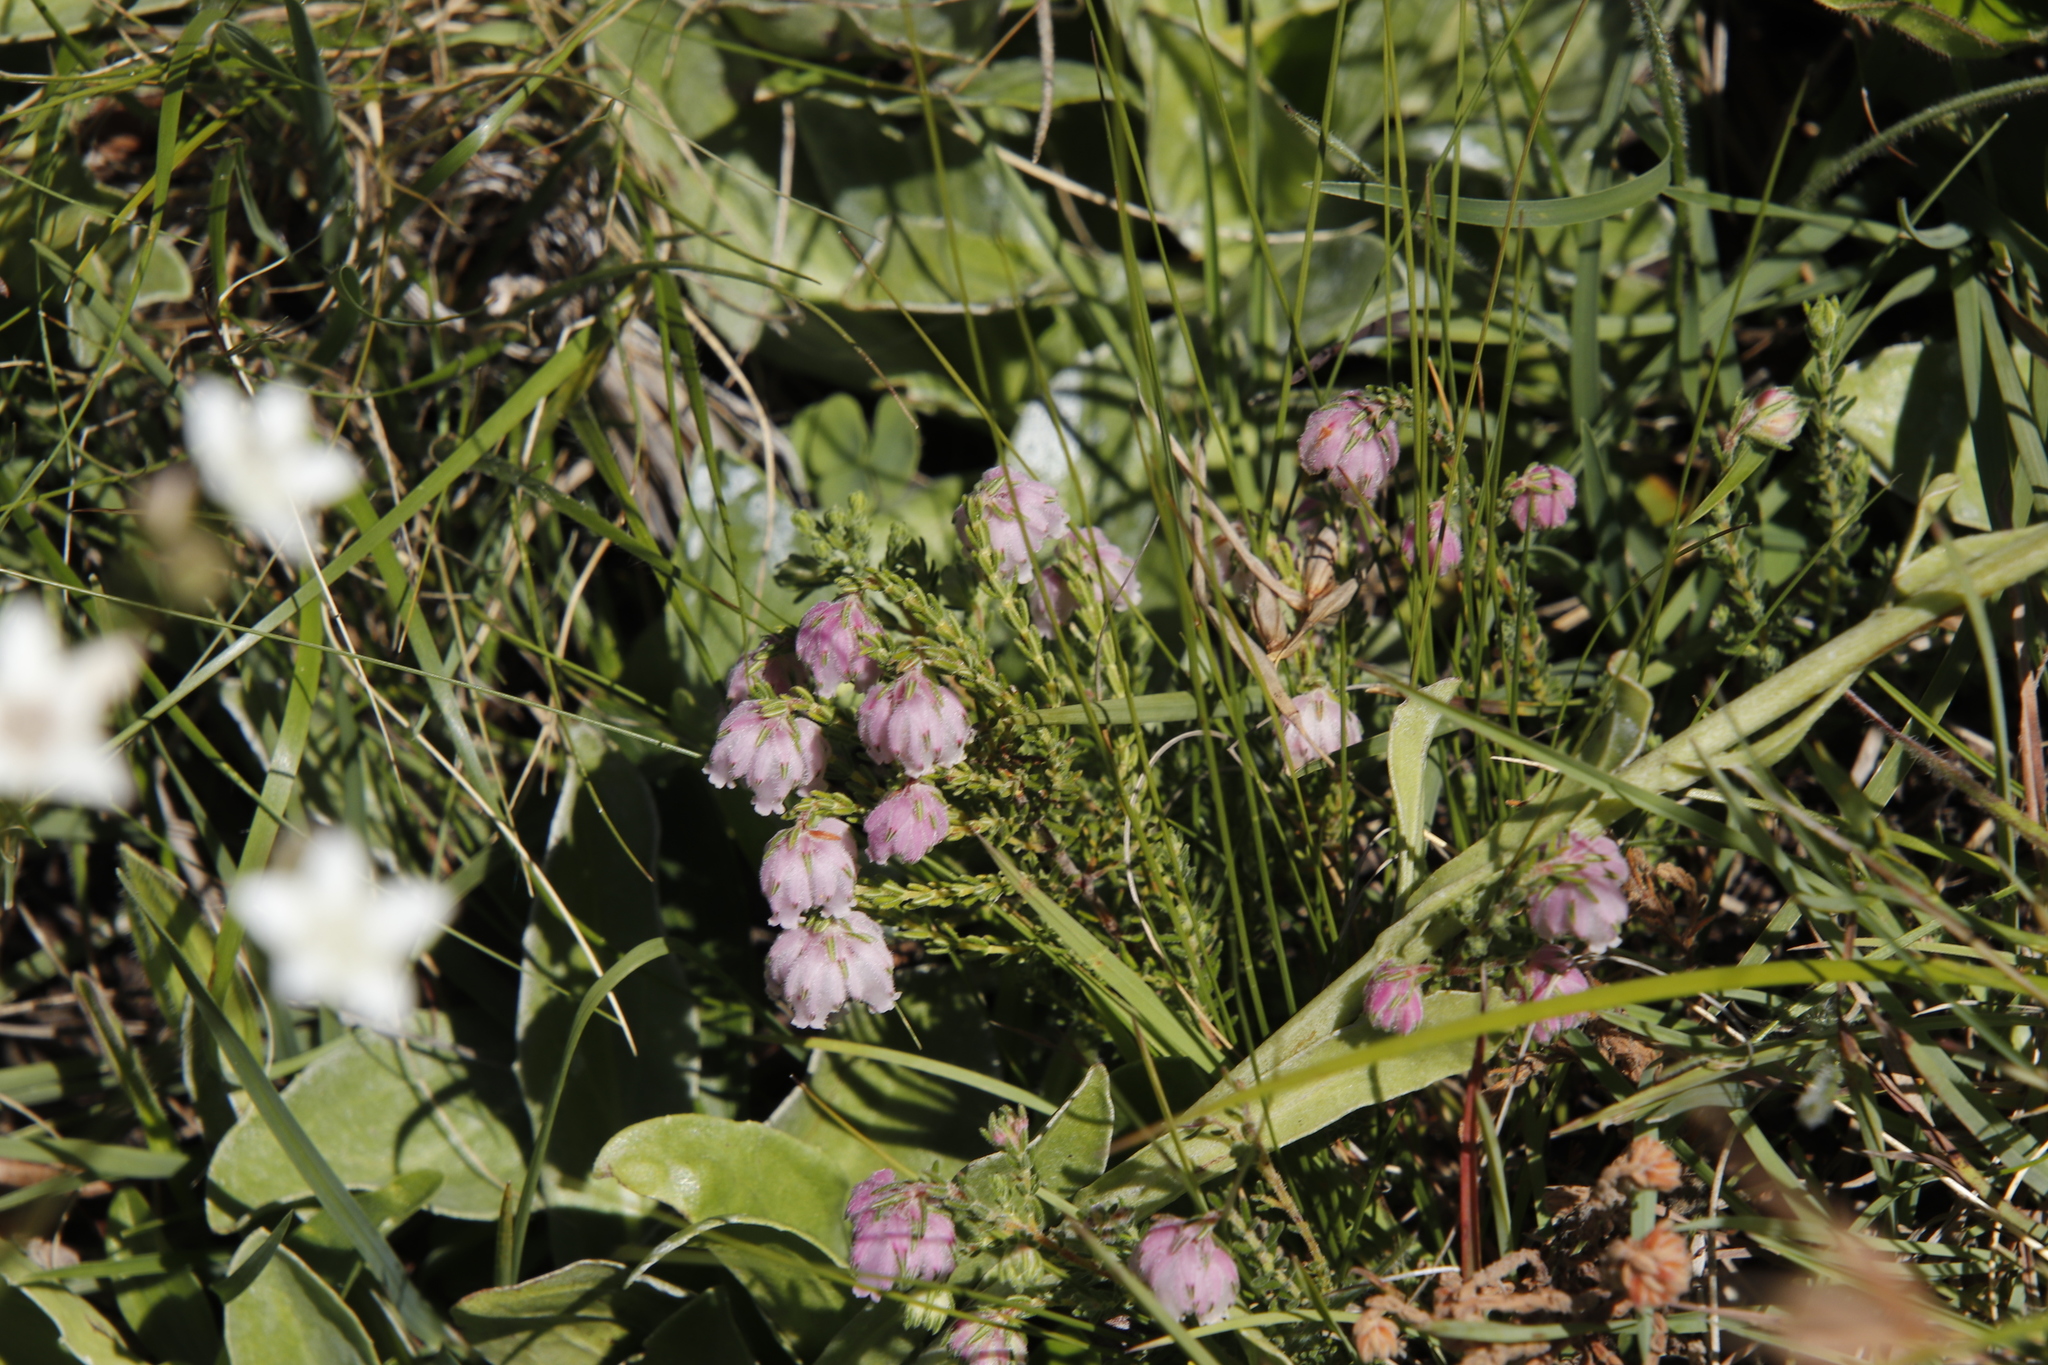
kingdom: Plantae
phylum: Tracheophyta
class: Magnoliopsida
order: Ericales
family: Ericaceae
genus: Erica
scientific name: Erica cooperi
